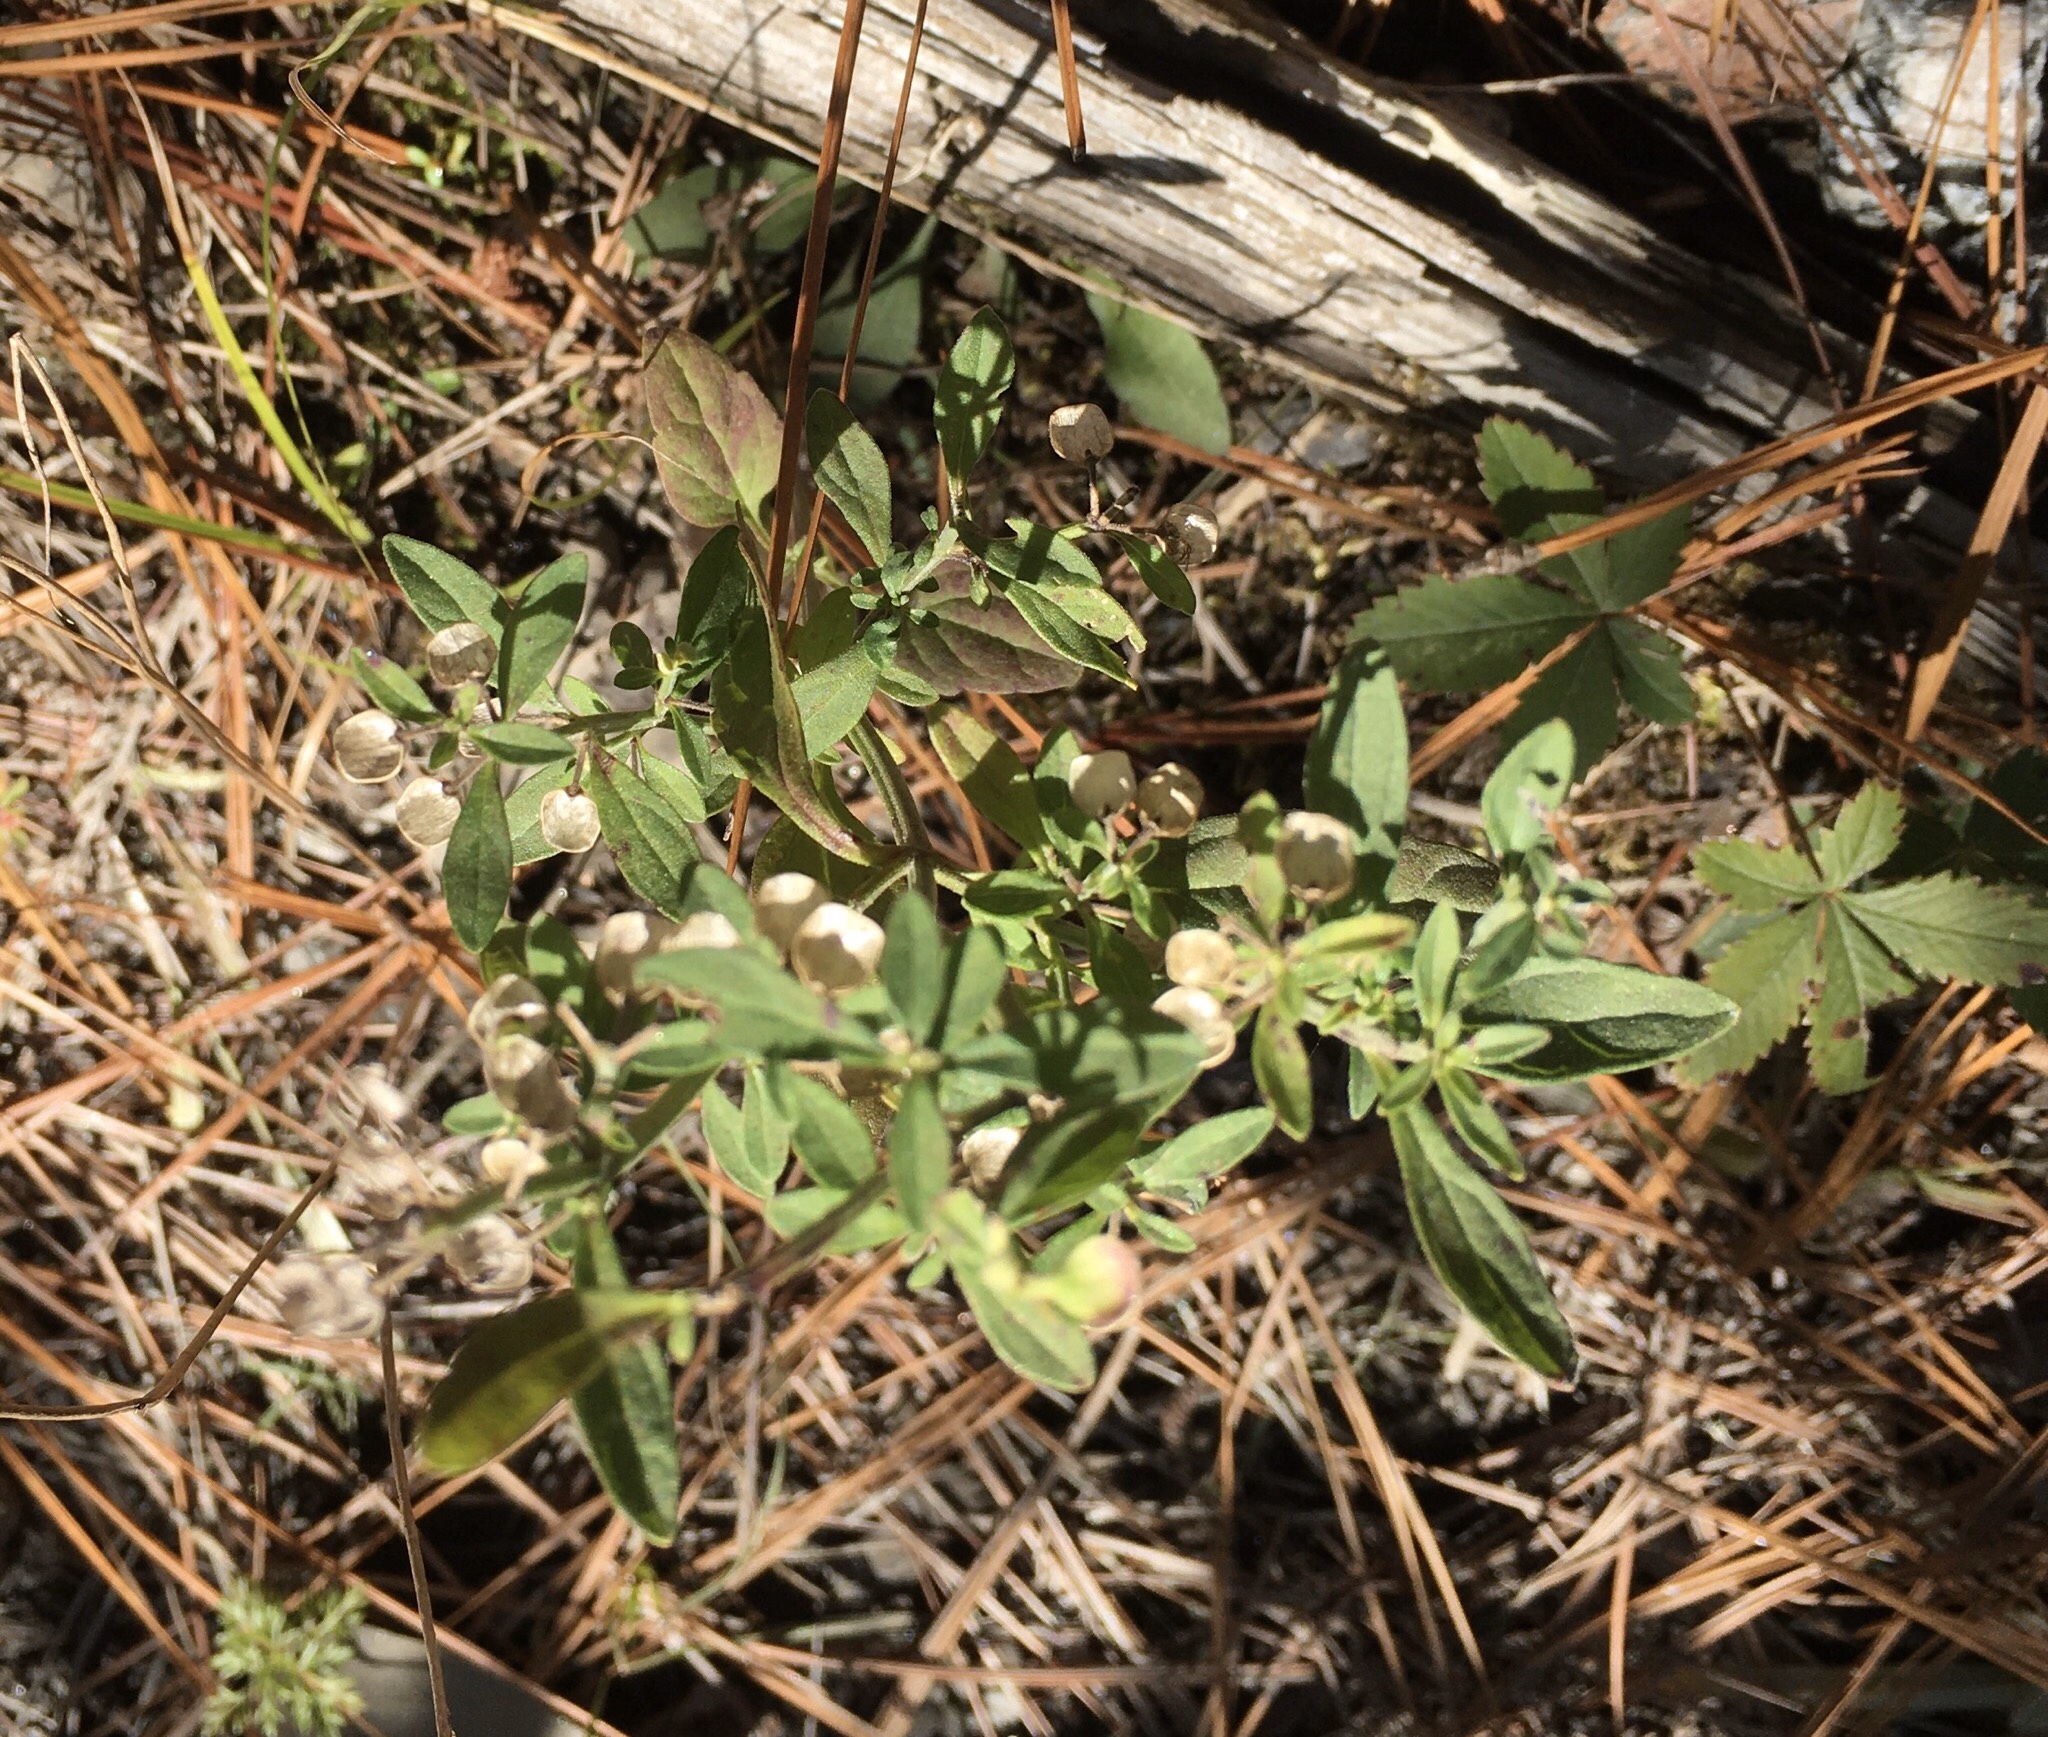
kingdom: Plantae
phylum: Tracheophyta
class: Magnoliopsida
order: Lamiales
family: Lamiaceae
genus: Scutellaria
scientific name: Scutellaria integrifolia
